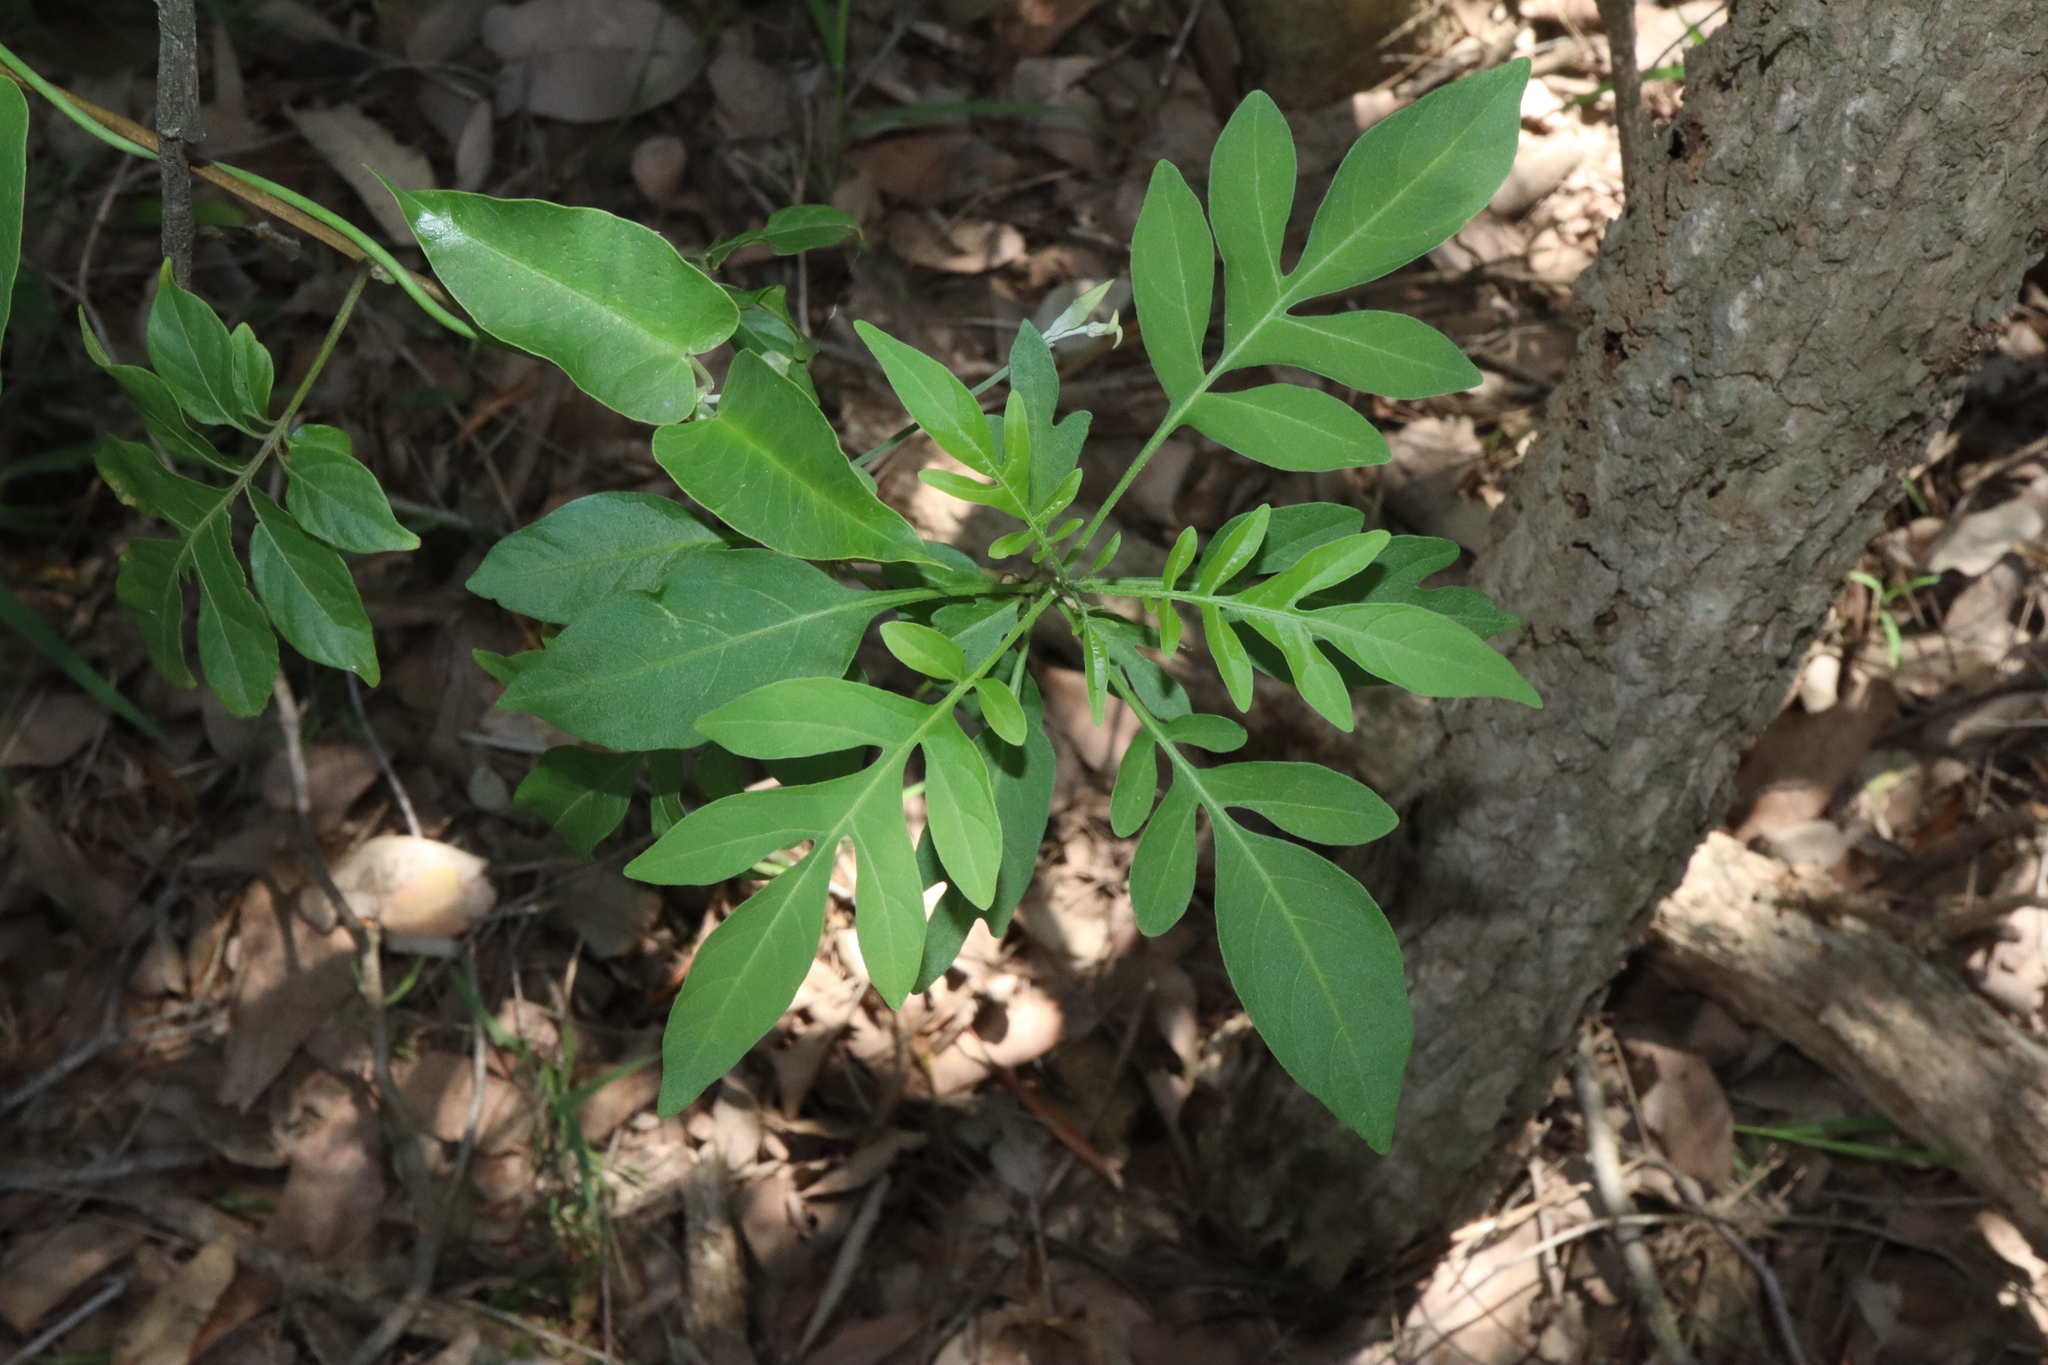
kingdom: Plantae
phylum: Tracheophyta
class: Magnoliopsida
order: Solanales
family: Solanaceae
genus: Solanum
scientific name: Solanum seaforthianum
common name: Brazilian nightshade
